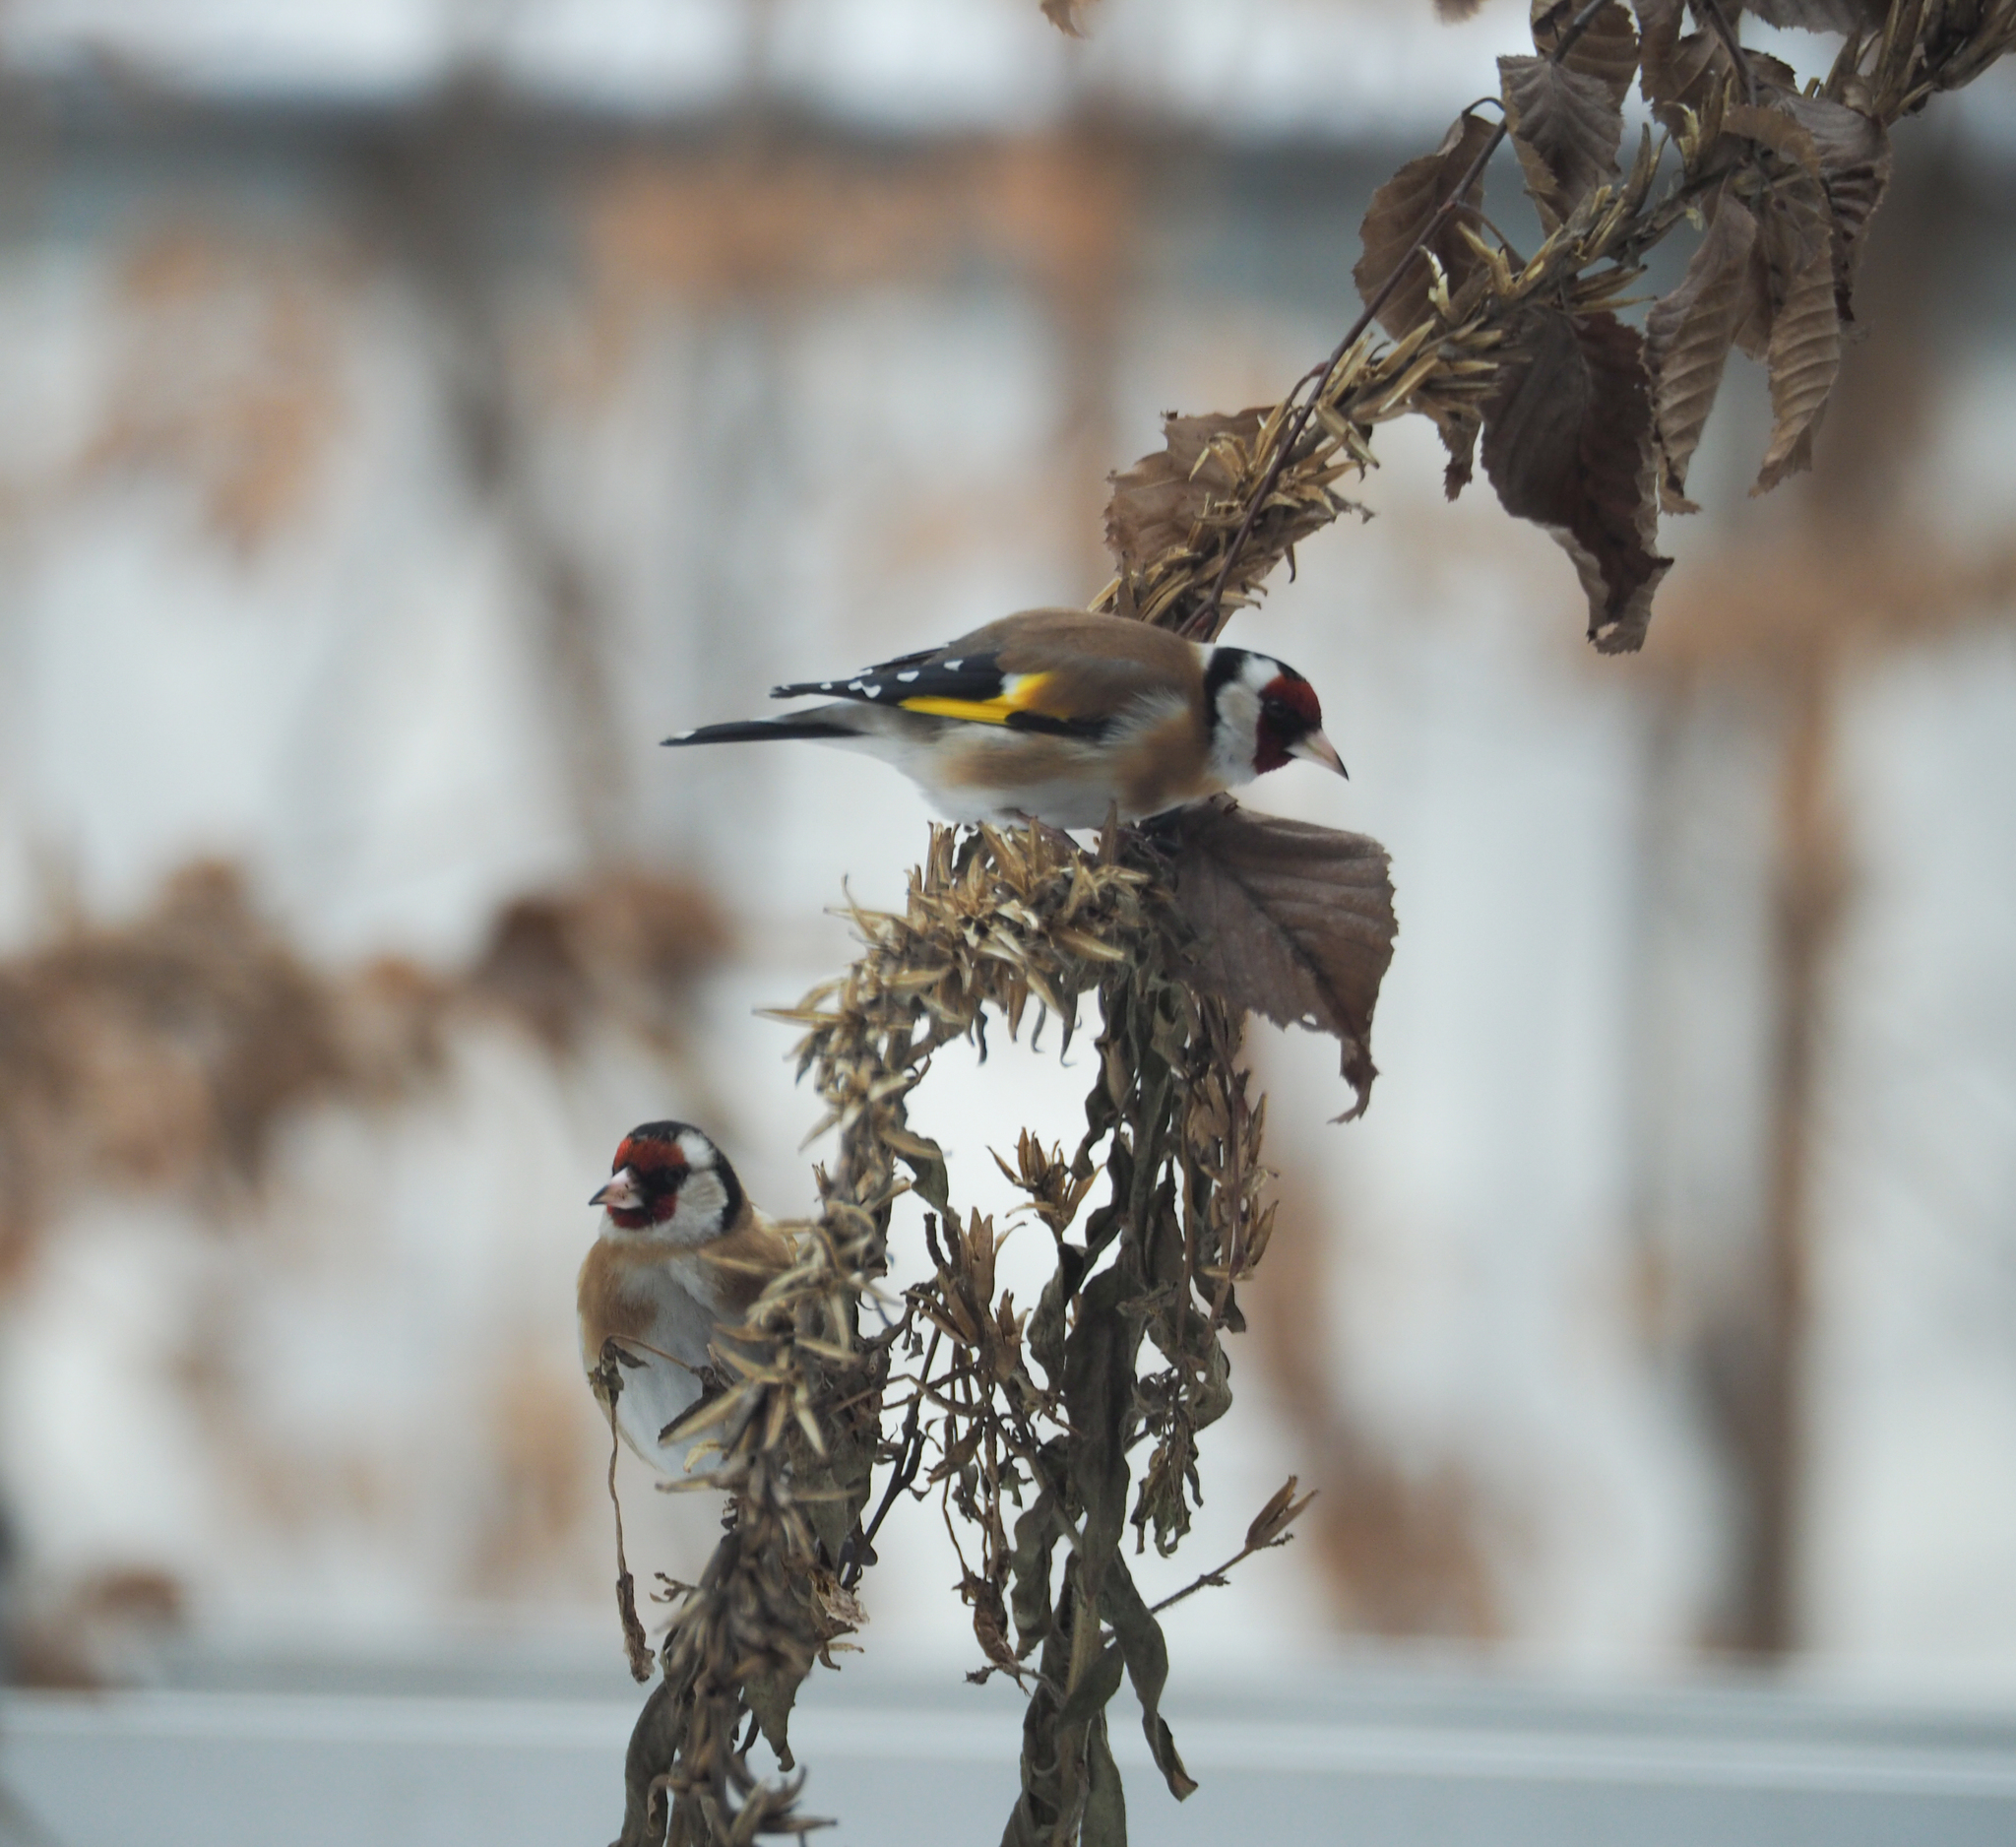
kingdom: Animalia
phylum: Chordata
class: Aves
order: Passeriformes
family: Fringillidae
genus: Carduelis
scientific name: Carduelis carduelis
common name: European goldfinch
